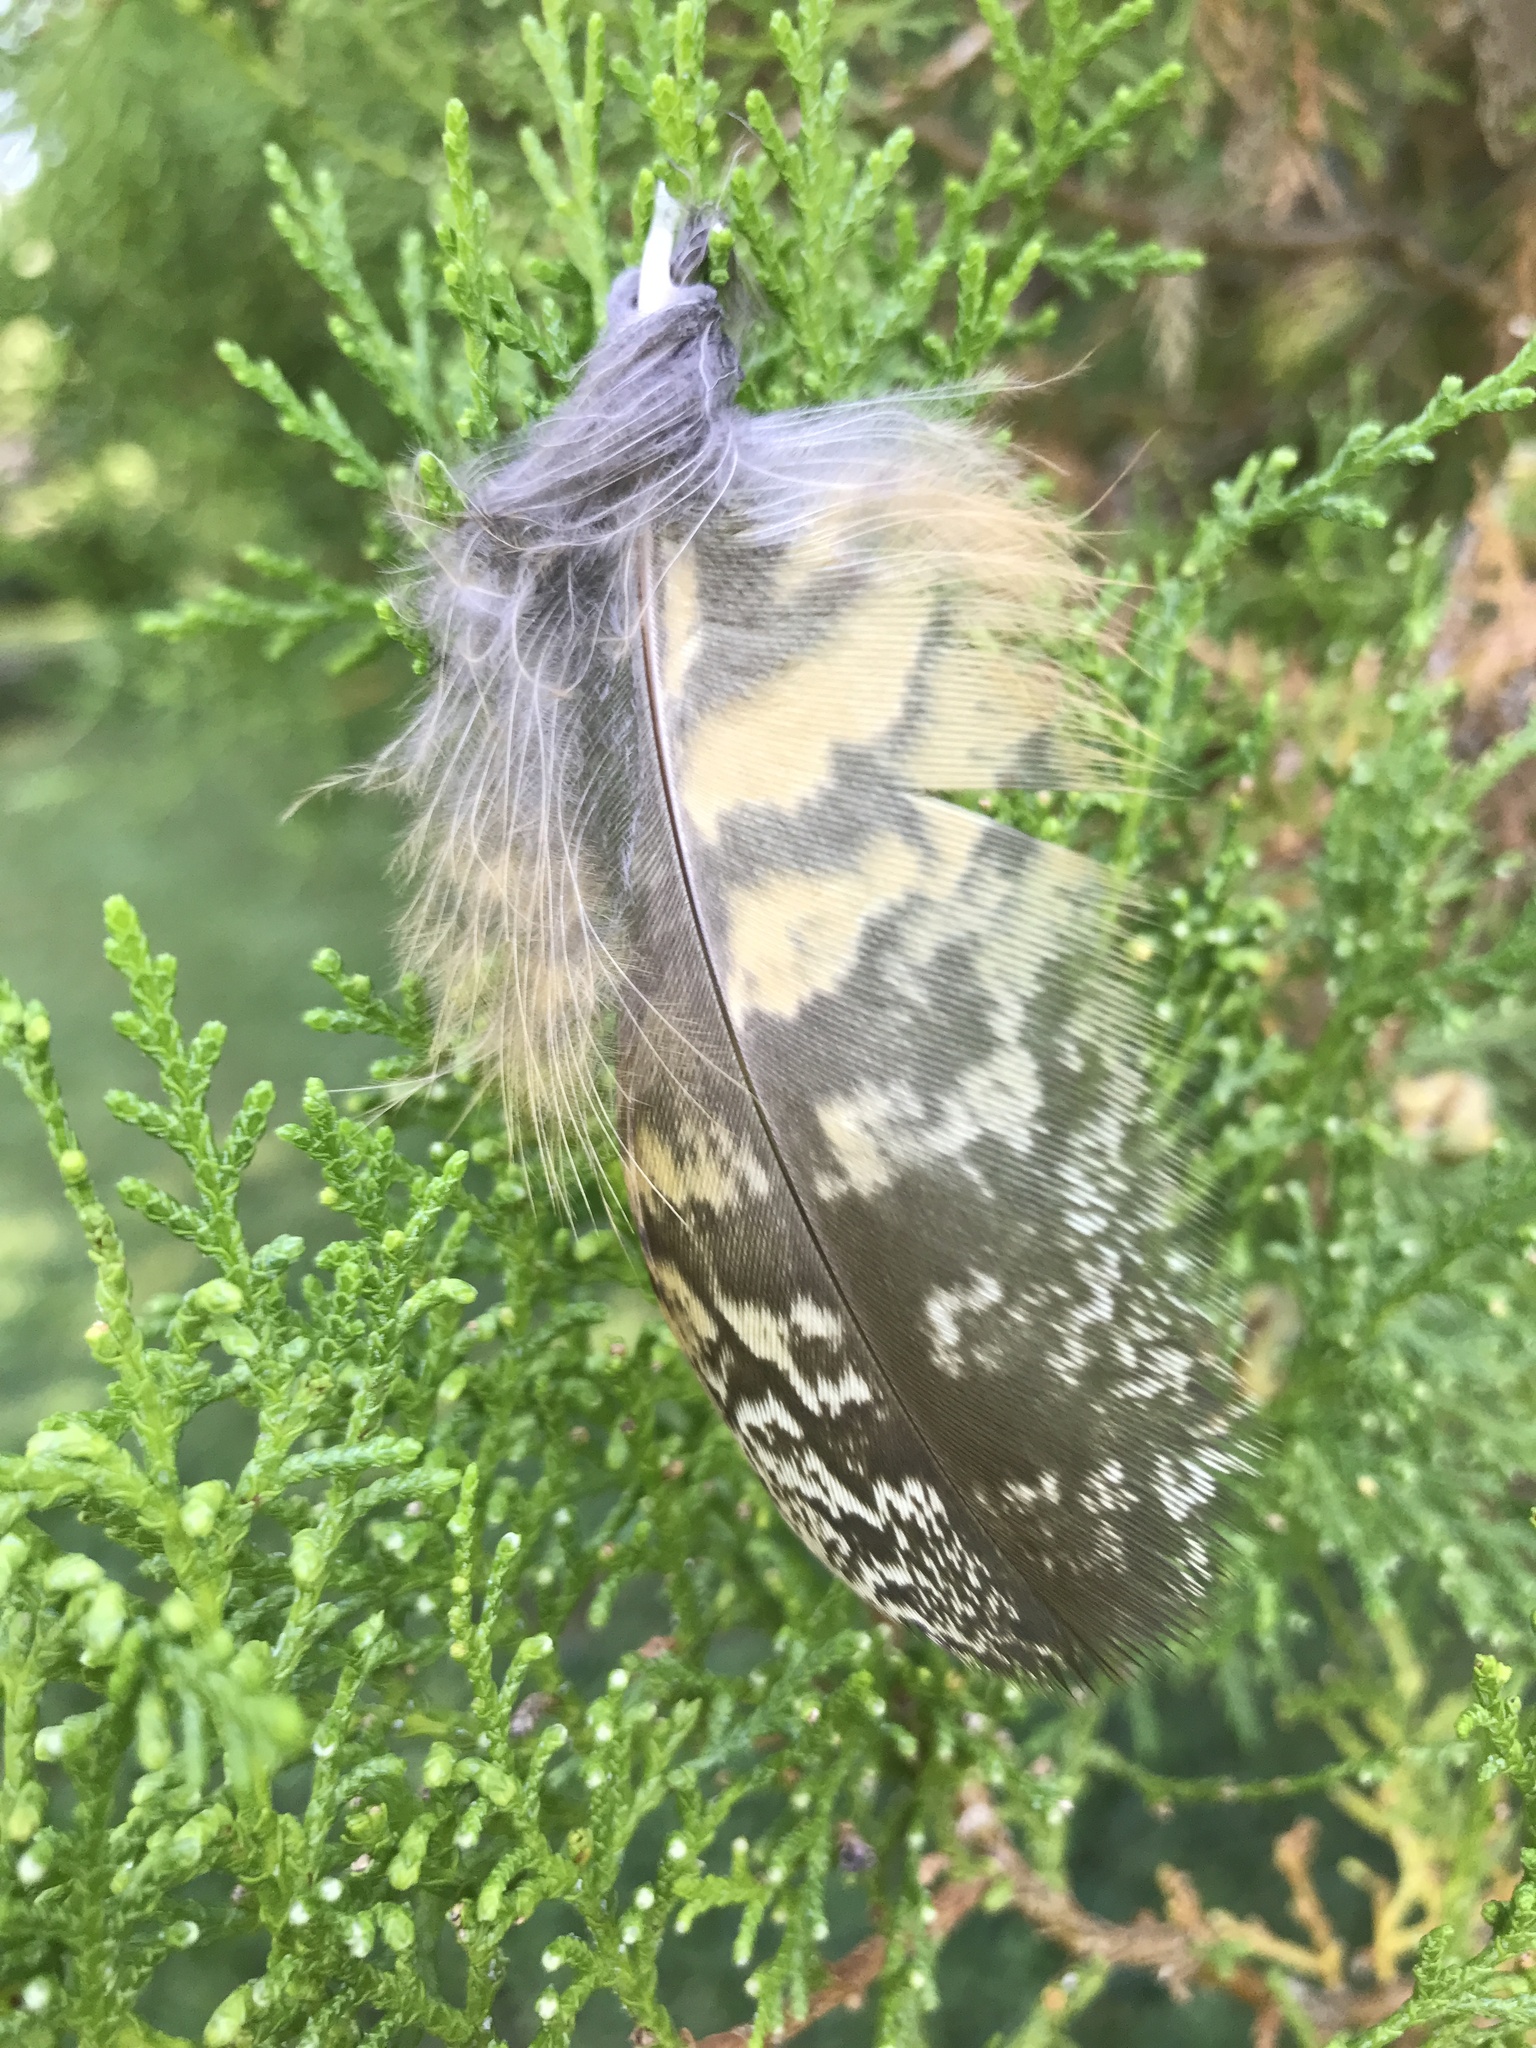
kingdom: Animalia
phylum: Chordata
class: Aves
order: Strigiformes
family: Strigidae
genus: Bubo
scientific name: Bubo virginianus
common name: Great horned owl
